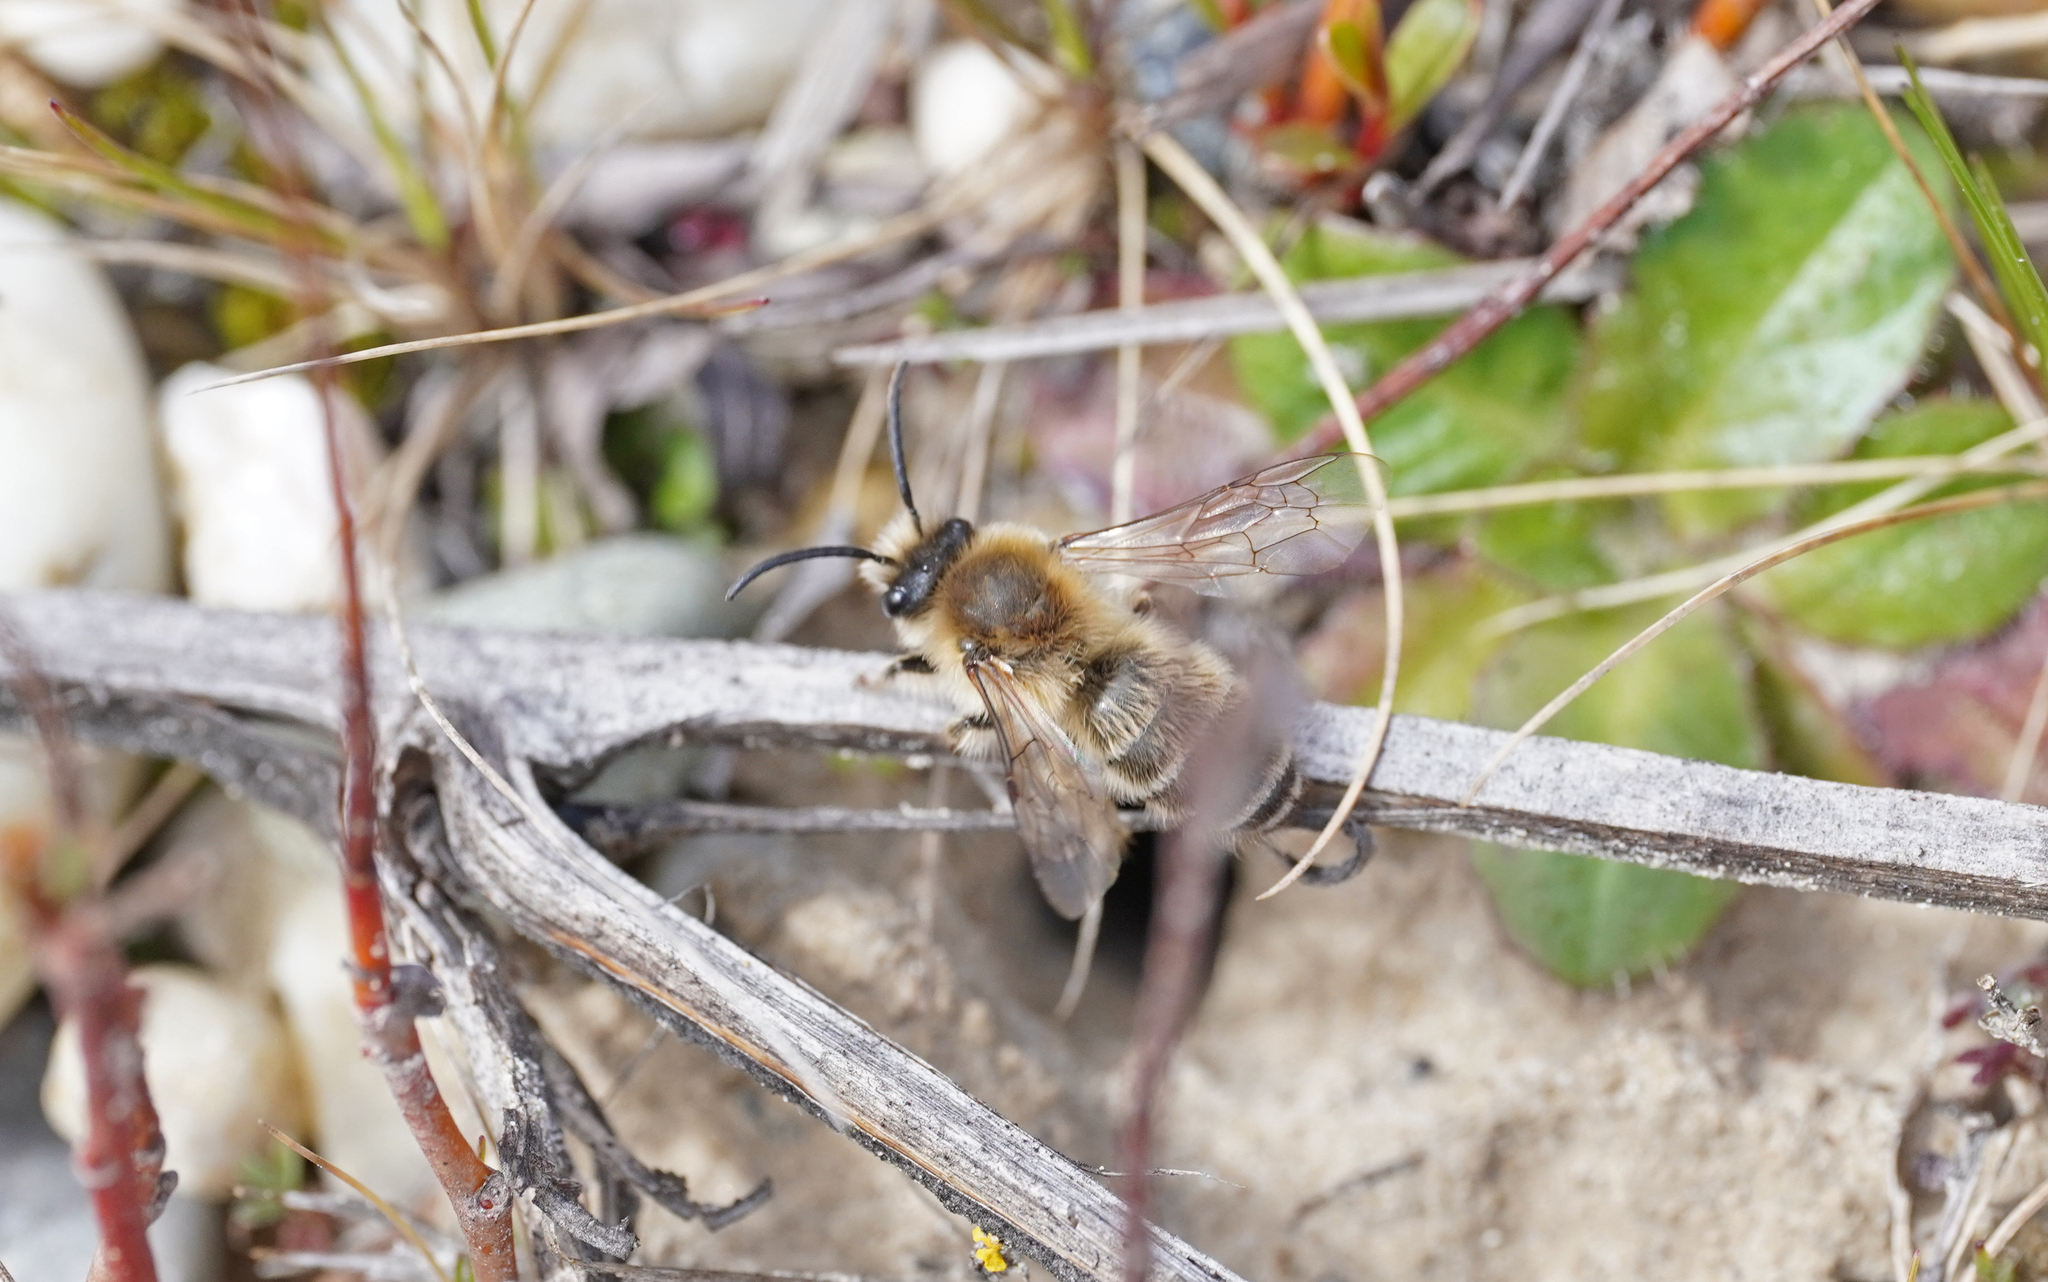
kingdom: Animalia
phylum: Arthropoda
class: Insecta
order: Hymenoptera
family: Colletidae
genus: Colletes
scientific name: Colletes cunicularius
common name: Early colletes
